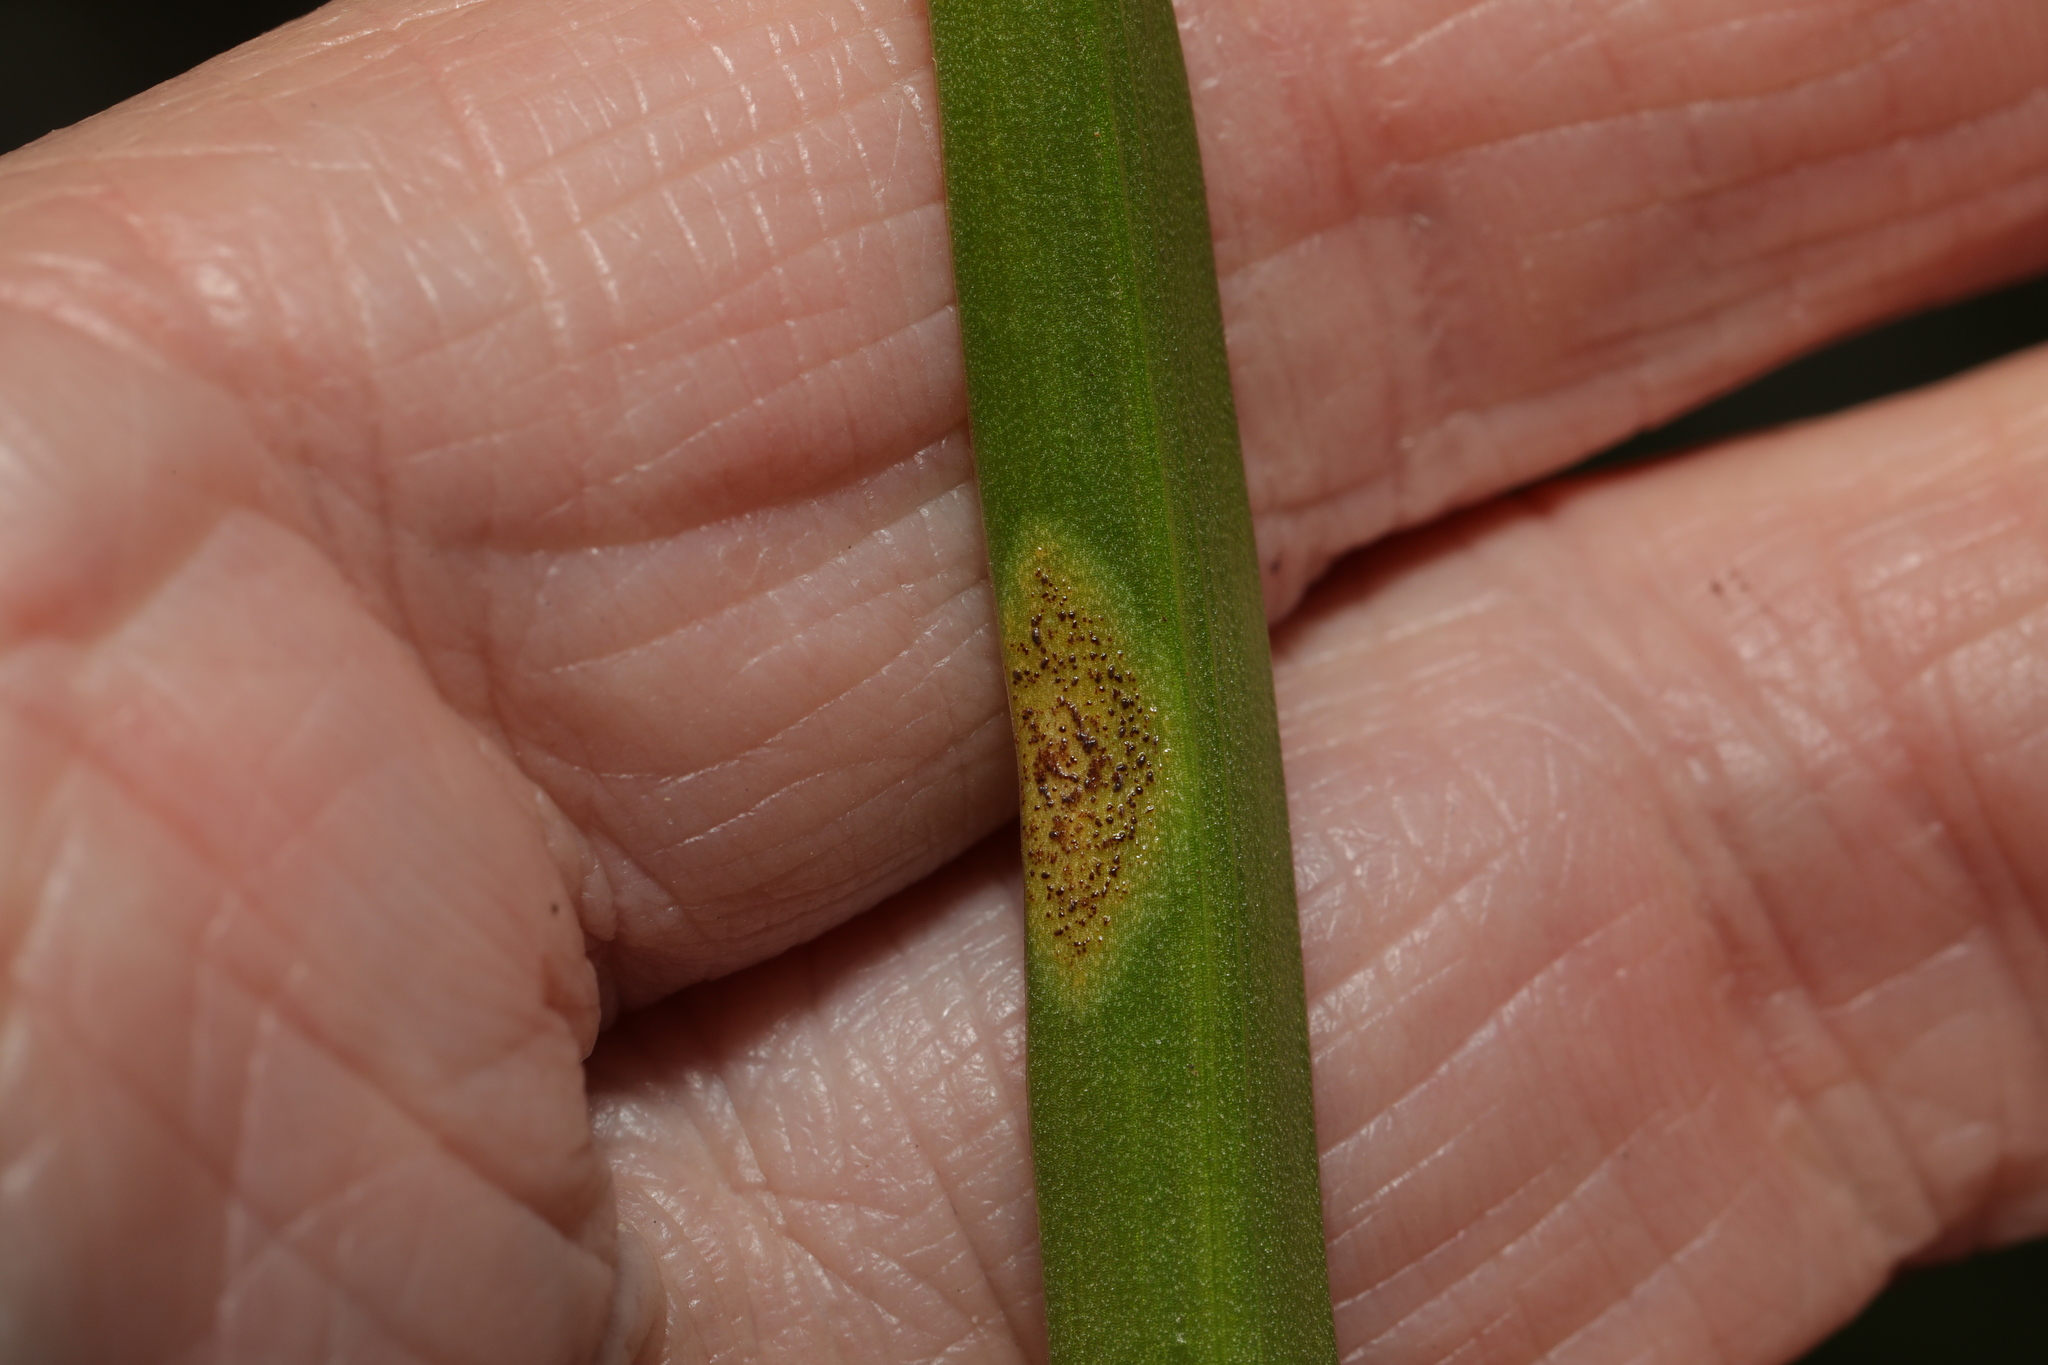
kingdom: Fungi
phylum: Basidiomycota
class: Pucciniomycetes
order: Pucciniales
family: Pucciniaceae
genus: Uromyces
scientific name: Uromyces hyacinthi
